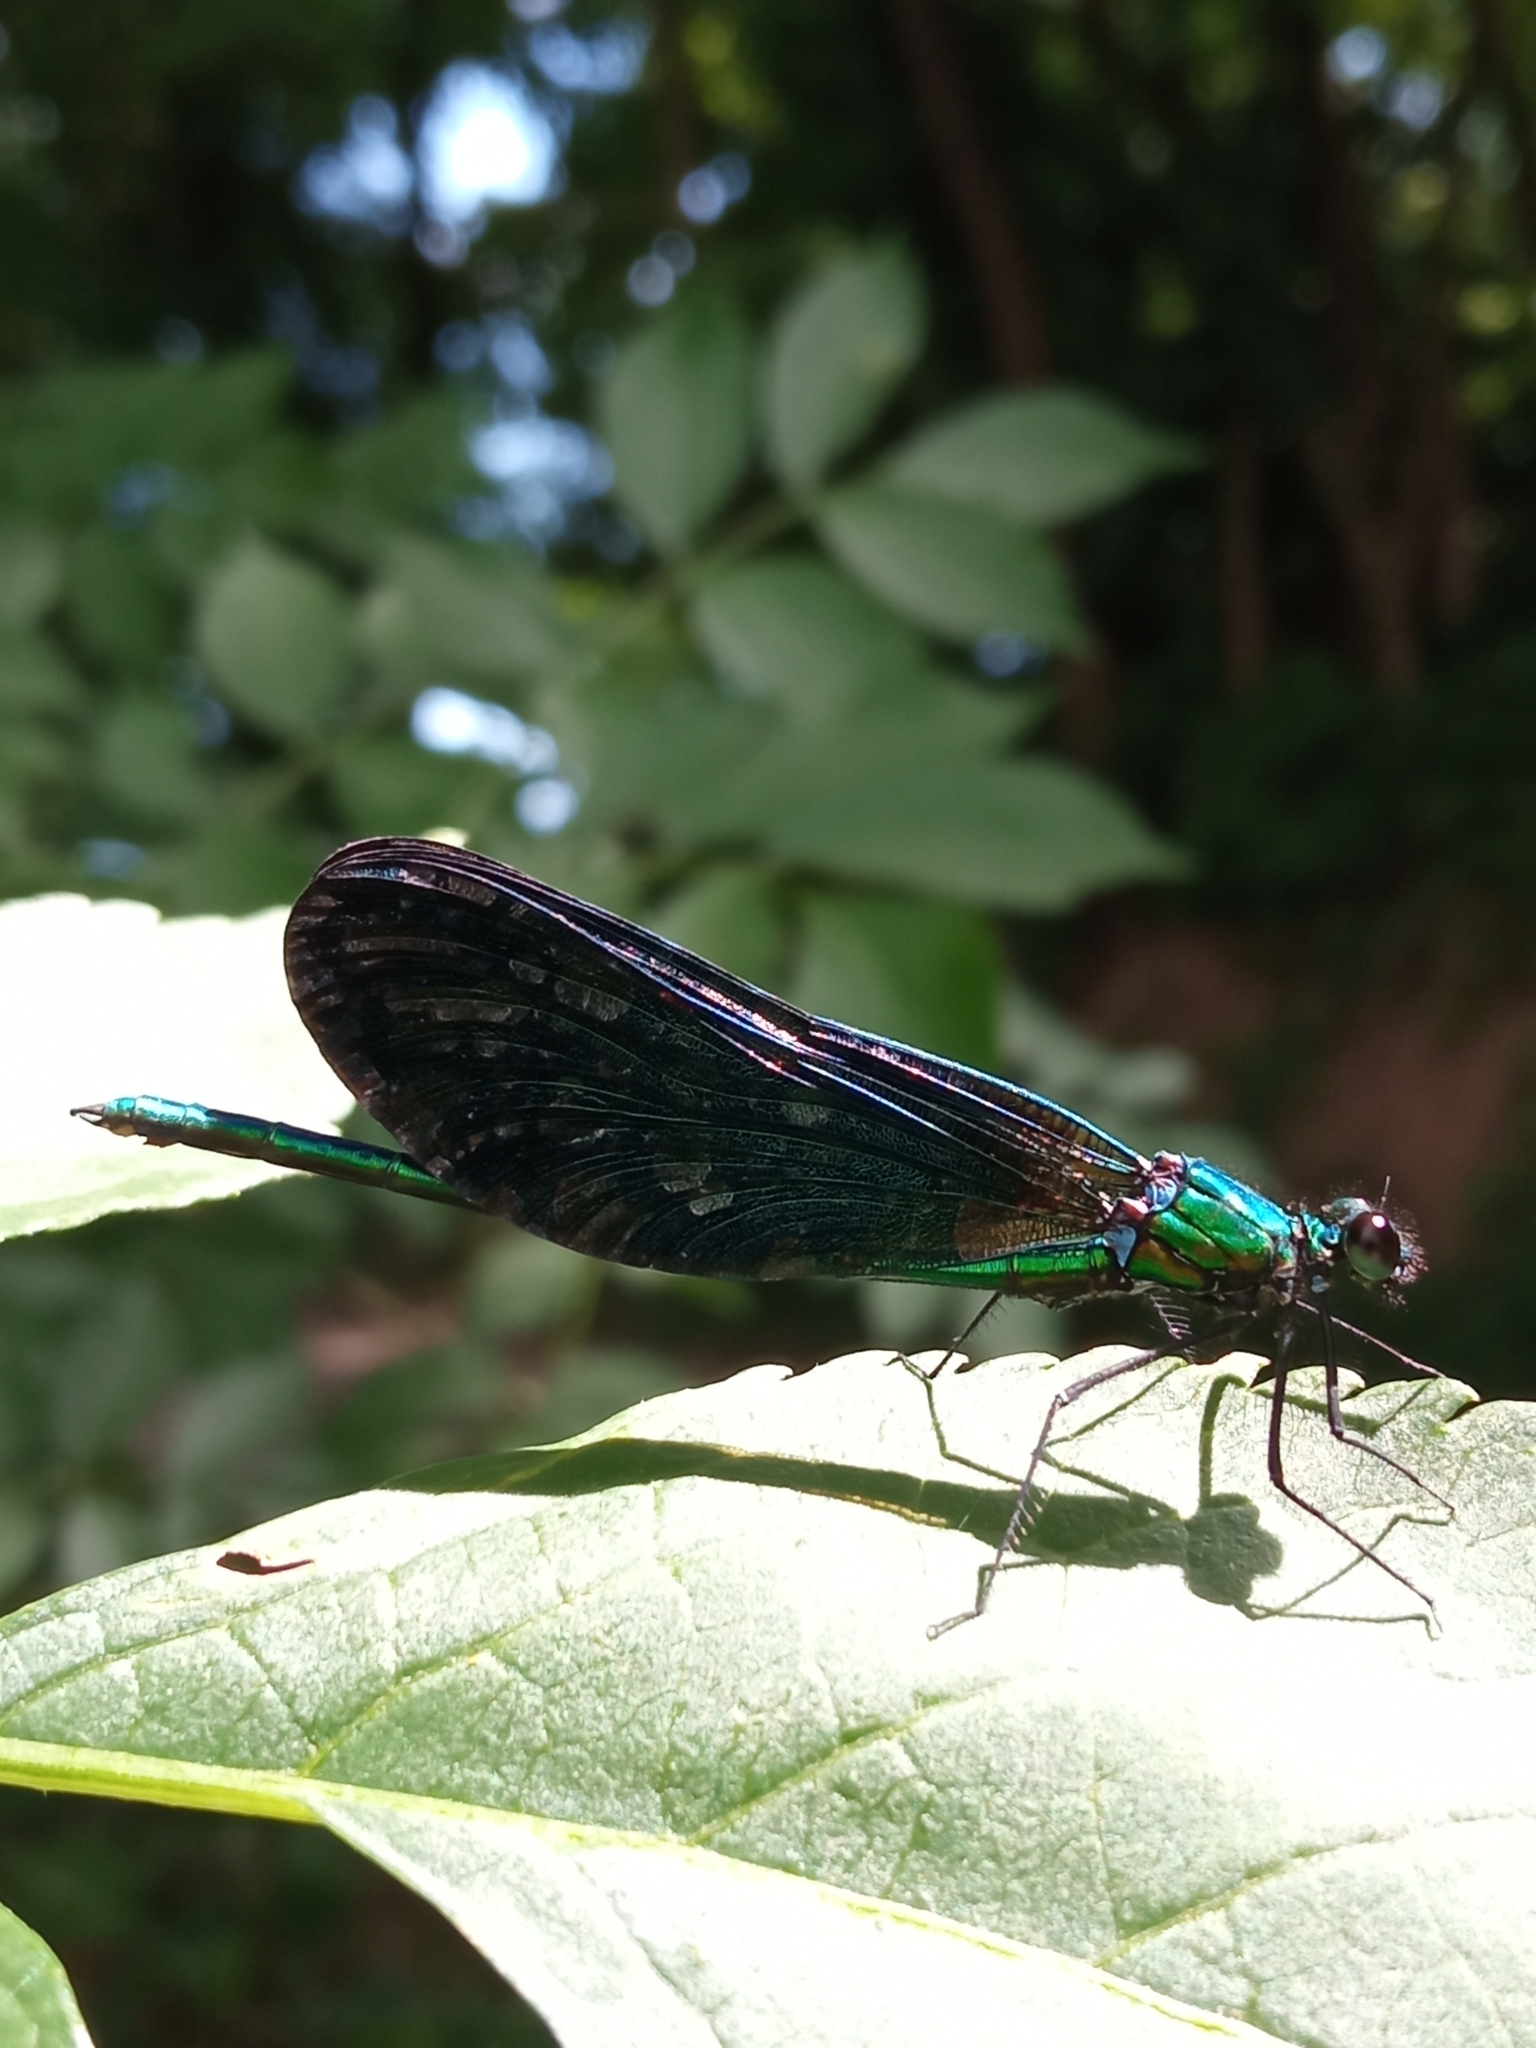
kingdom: Animalia
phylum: Arthropoda
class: Insecta
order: Odonata
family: Calopterygidae
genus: Calopteryx
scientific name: Calopteryx virgo
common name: Beautiful demoiselle
